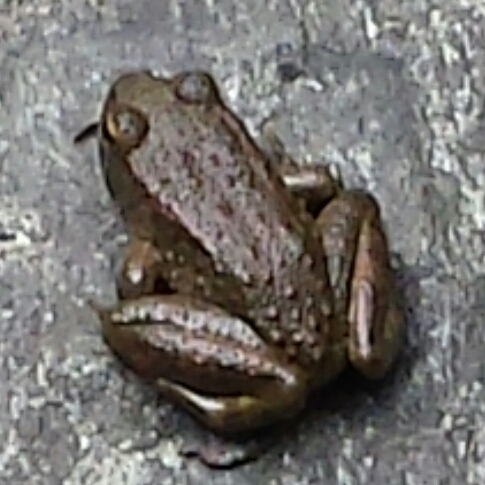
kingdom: Animalia
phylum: Chordata
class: Amphibia
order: Anura
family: Ranidae
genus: Rana
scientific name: Rana boylii
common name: Foothill yellow-legged frog
